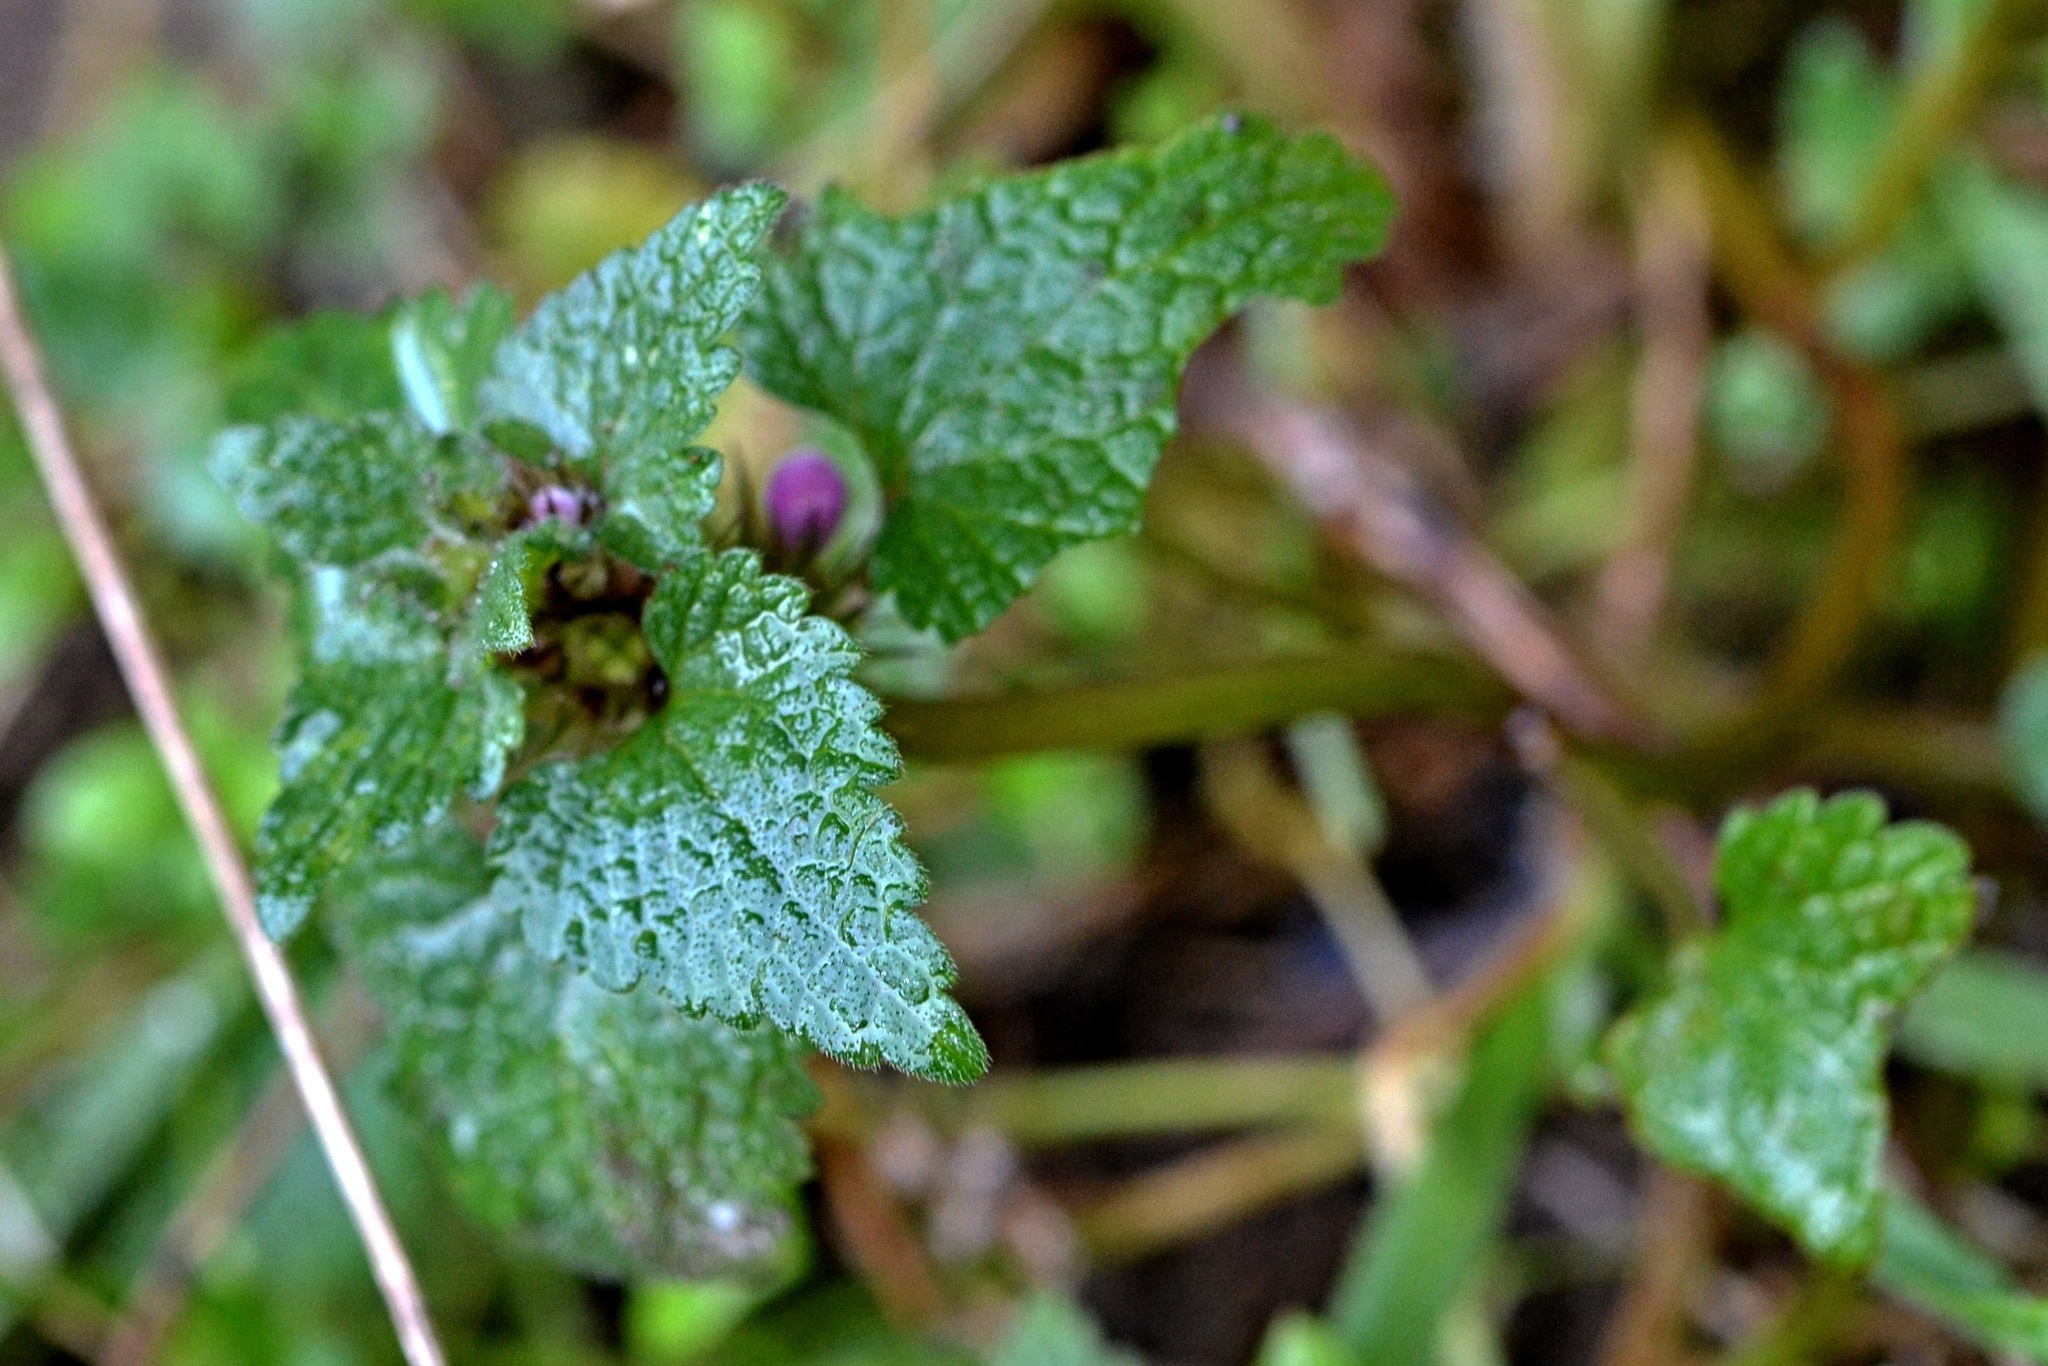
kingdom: Plantae
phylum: Tracheophyta
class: Magnoliopsida
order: Lamiales
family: Lamiaceae
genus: Lamium
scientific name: Lamium purpureum
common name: Red dead-nettle
